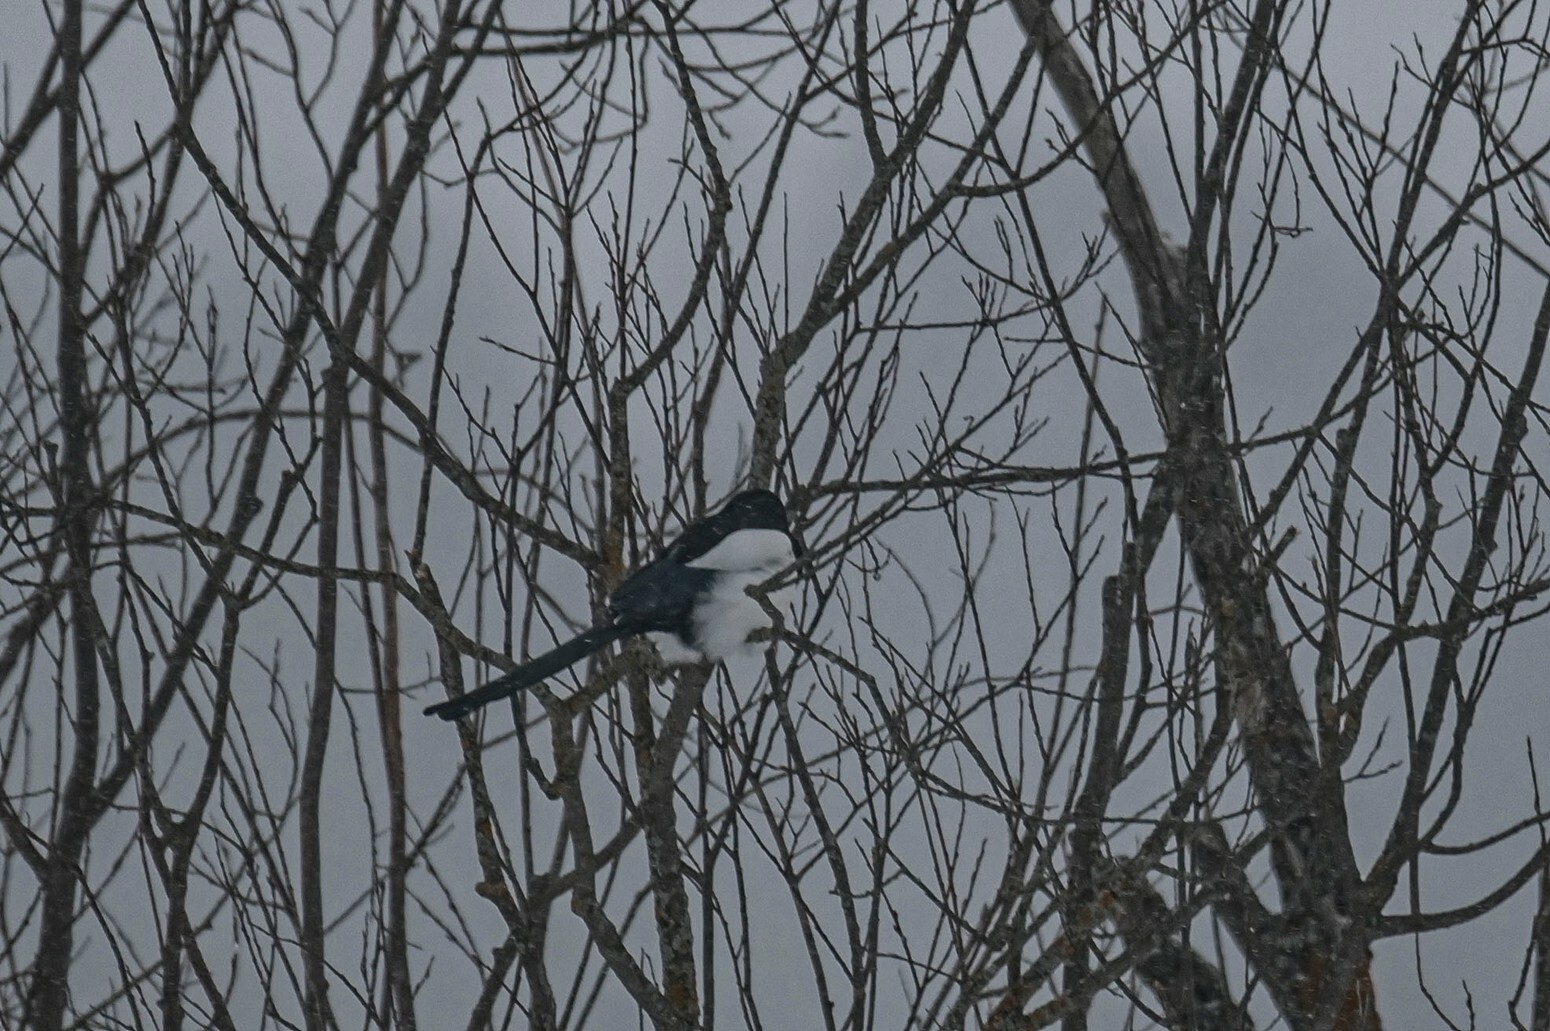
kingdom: Animalia
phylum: Chordata
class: Aves
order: Passeriformes
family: Corvidae
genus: Pica
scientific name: Pica pica
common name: Eurasian magpie
